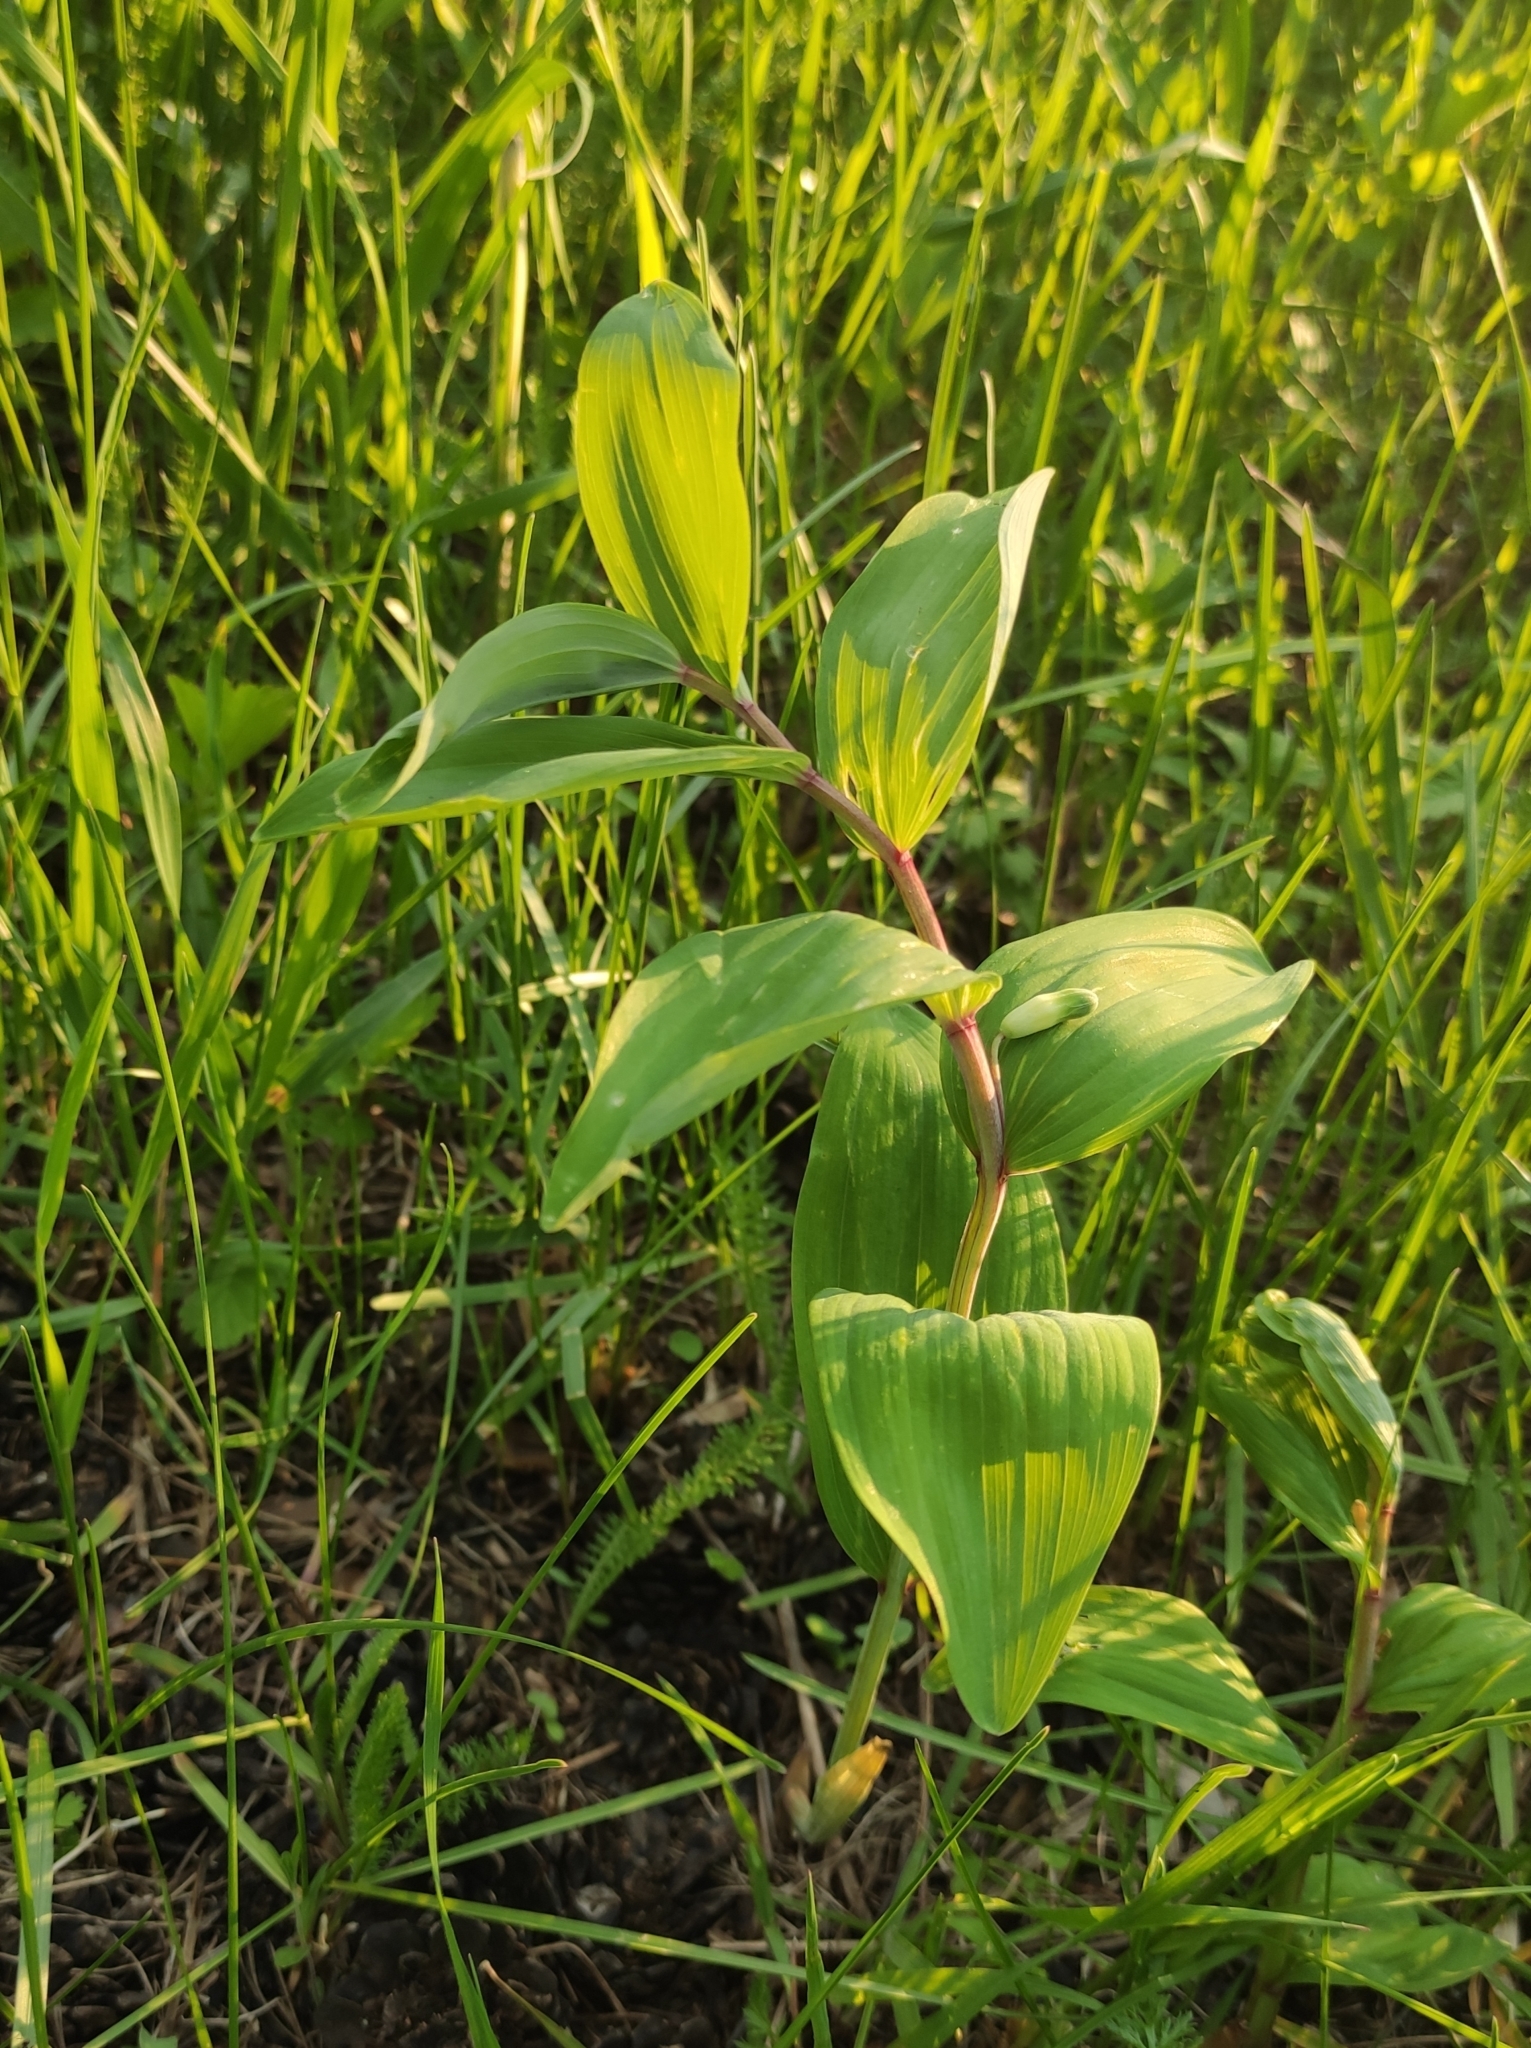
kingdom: Plantae
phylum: Tracheophyta
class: Liliopsida
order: Asparagales
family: Asparagaceae
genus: Polygonatum
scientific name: Polygonatum odoratum
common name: Angular solomon's-seal
